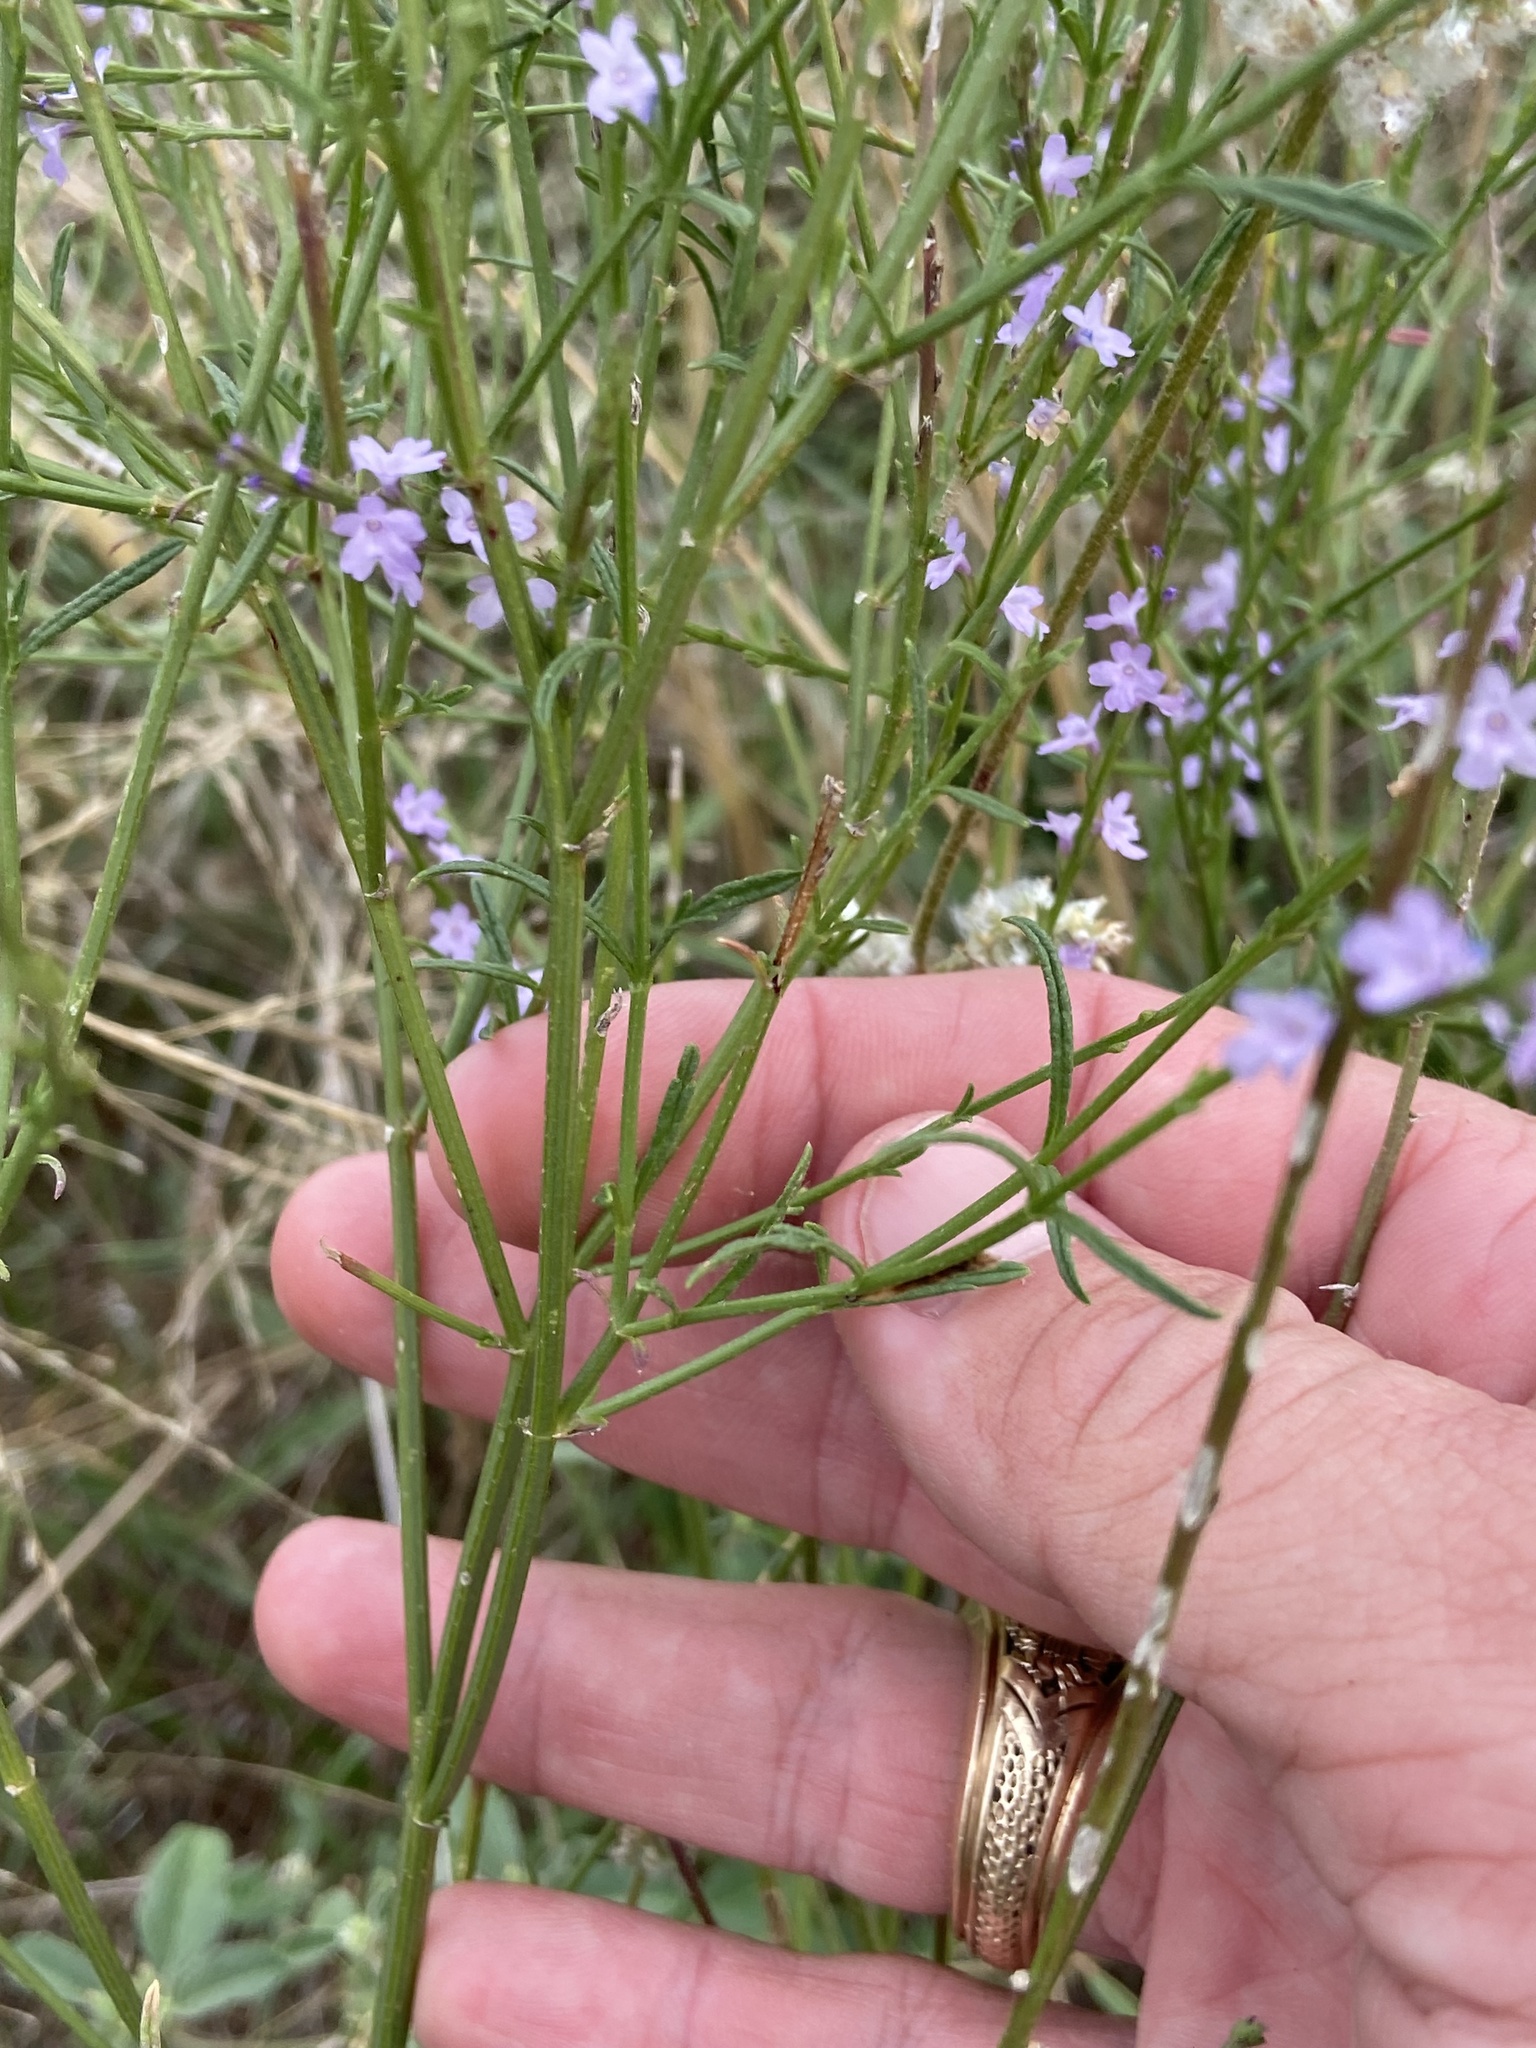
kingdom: Plantae
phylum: Tracheophyta
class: Magnoliopsida
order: Lamiales
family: Verbenaceae
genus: Verbena
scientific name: Verbena halei
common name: Texas vervain
